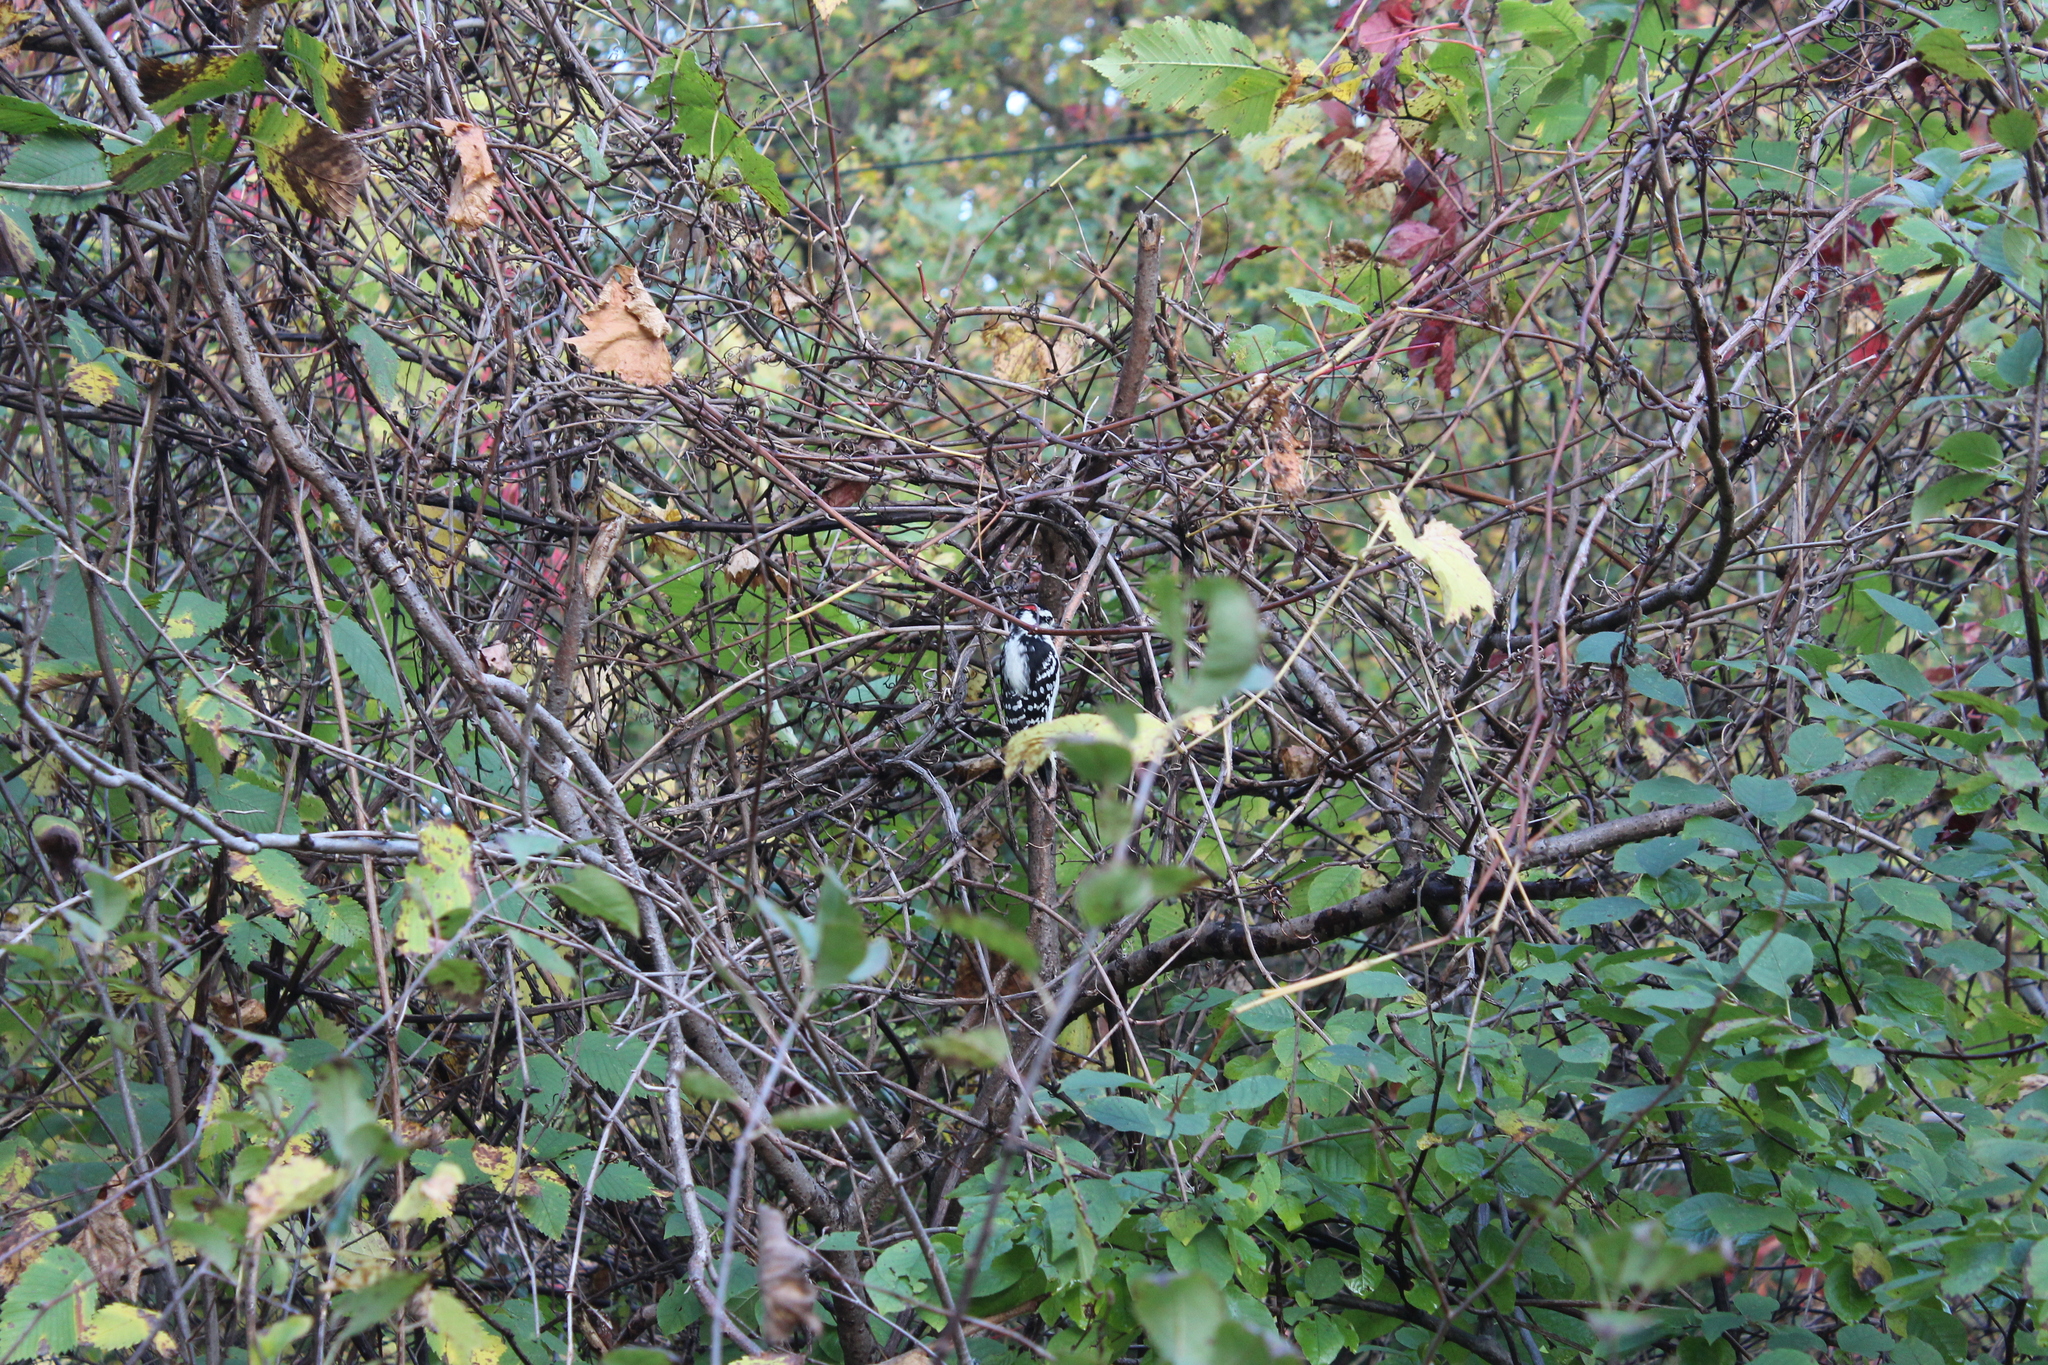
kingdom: Animalia
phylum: Chordata
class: Aves
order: Piciformes
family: Picidae
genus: Dryobates
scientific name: Dryobates pubescens
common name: Downy woodpecker
